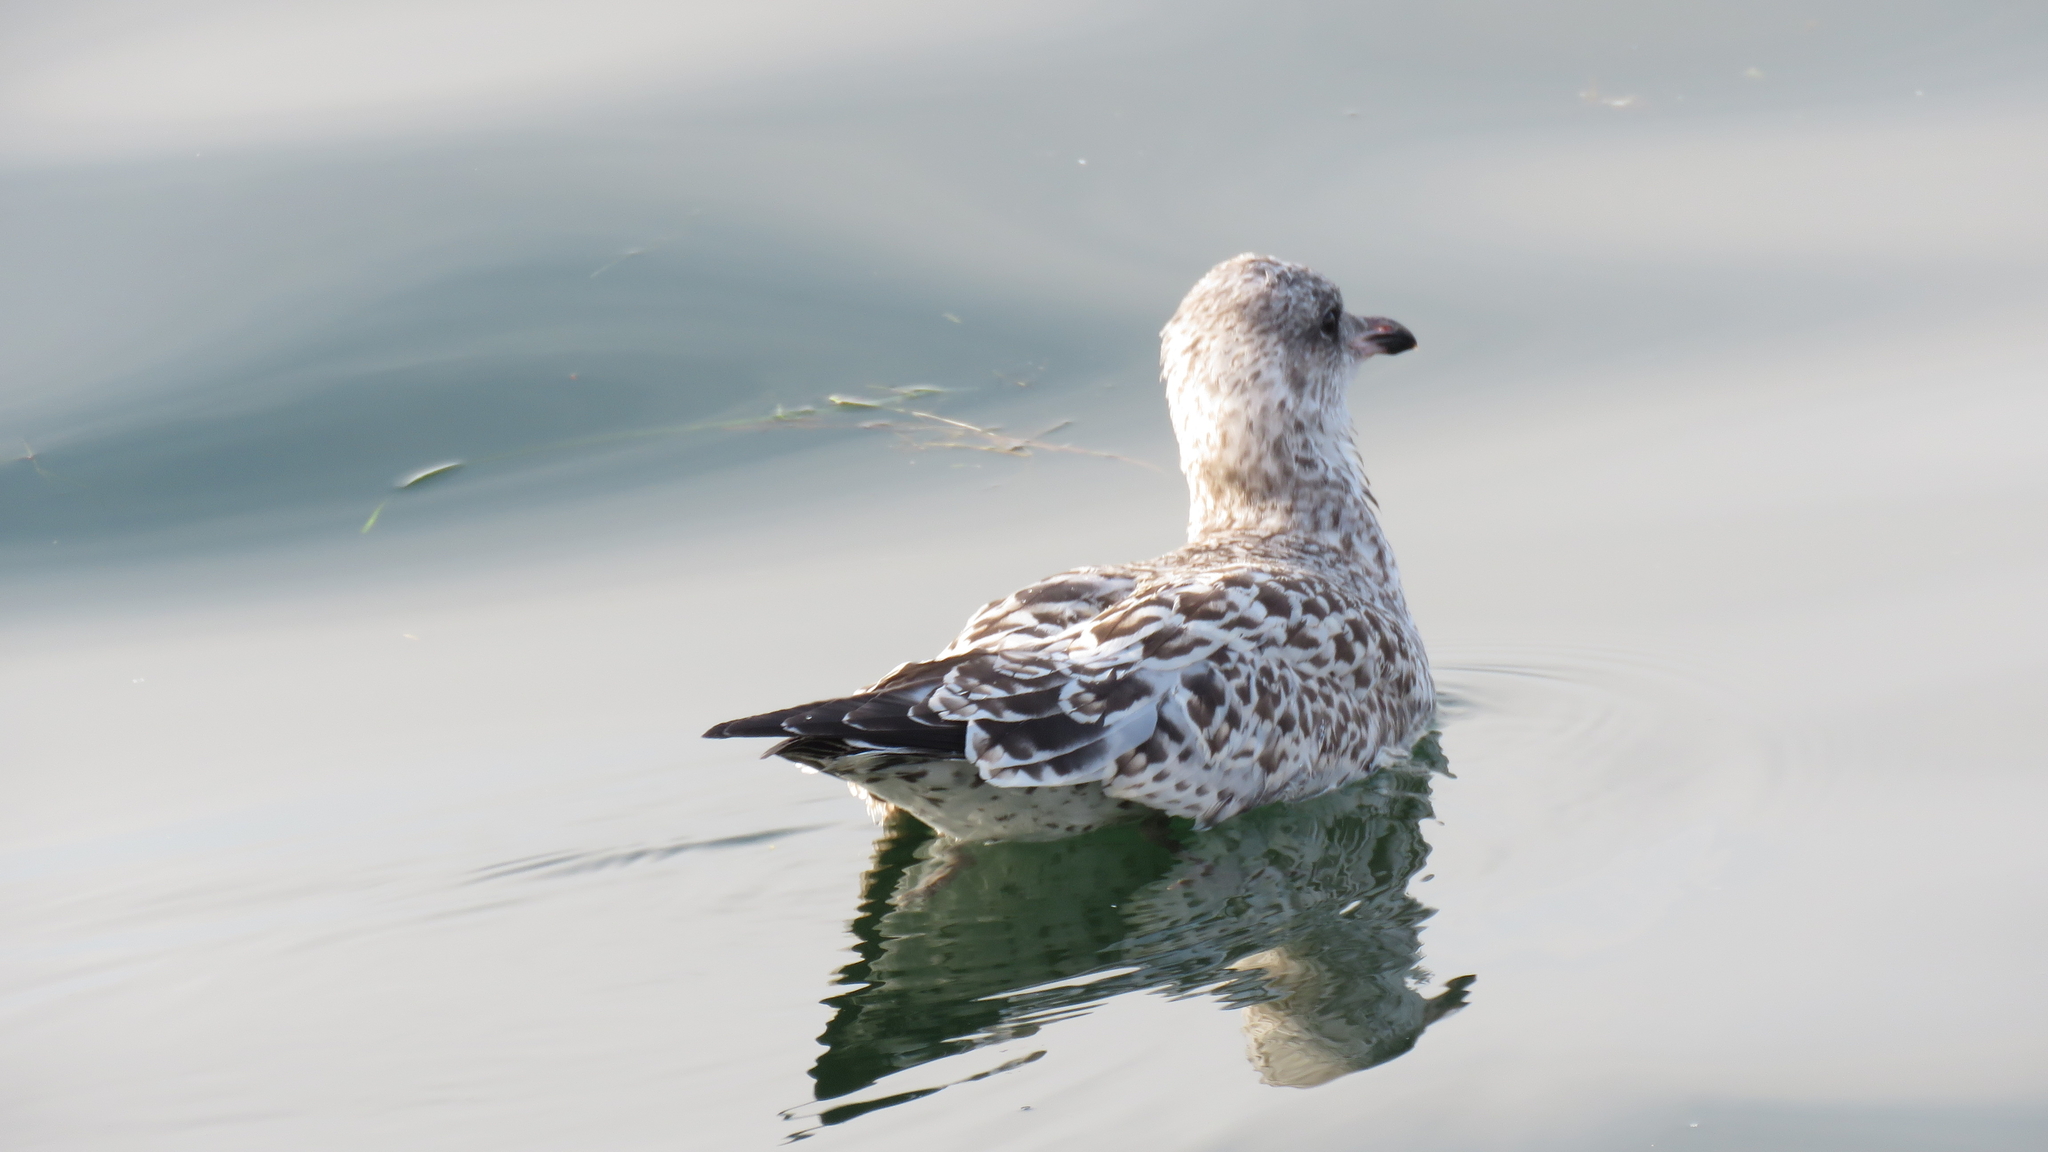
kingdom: Animalia
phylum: Chordata
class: Aves
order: Charadriiformes
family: Laridae
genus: Larus
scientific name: Larus delawarensis
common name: Ring-billed gull
